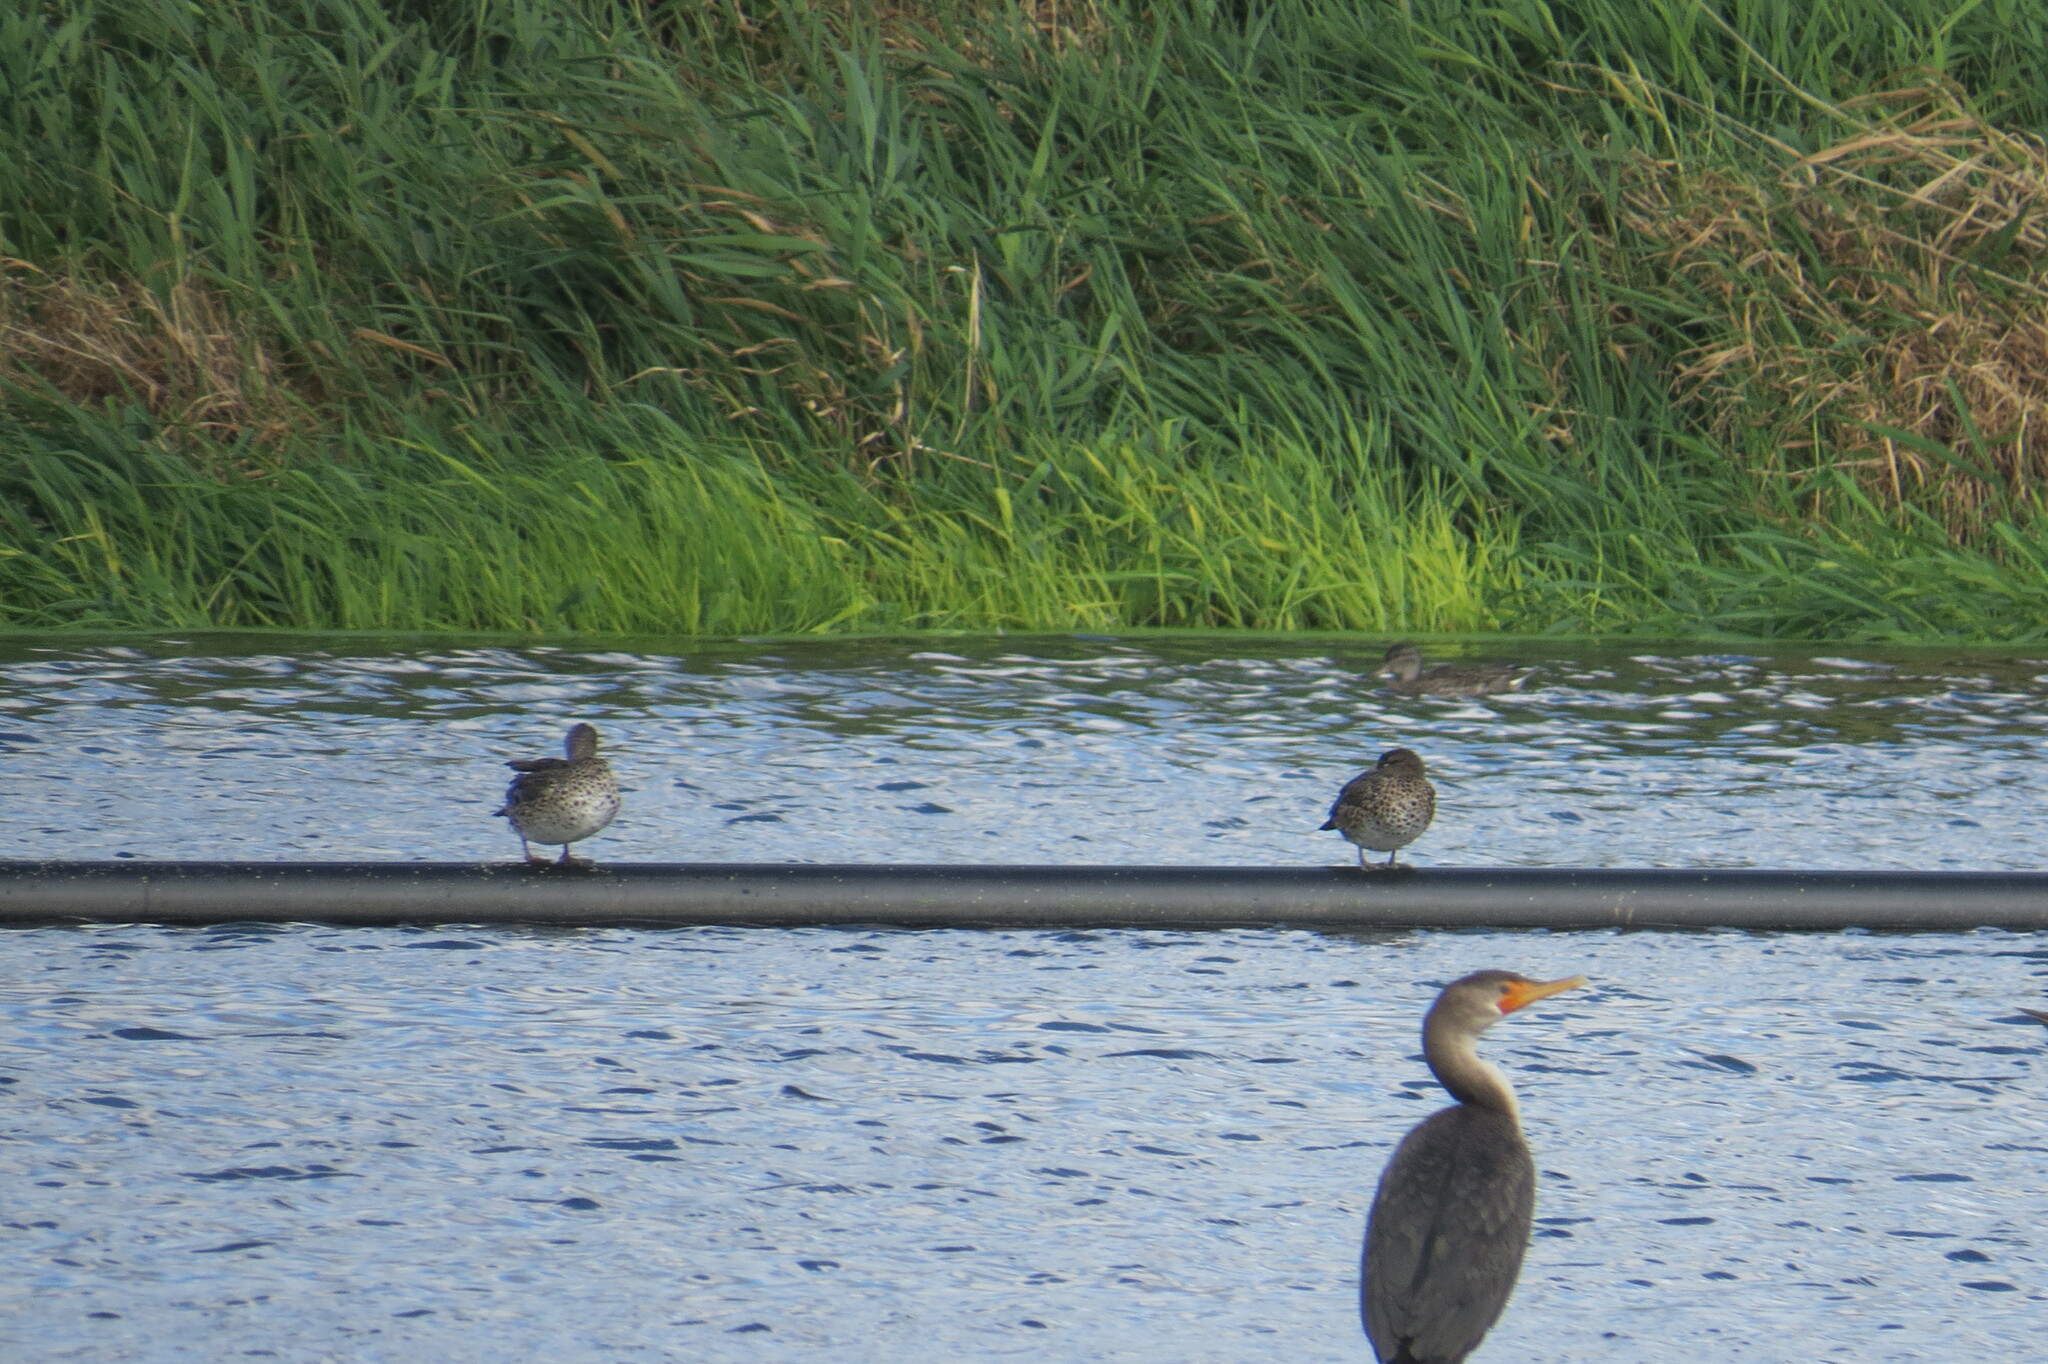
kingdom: Animalia
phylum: Chordata
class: Aves
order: Suliformes
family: Phalacrocoracidae
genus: Phalacrocorax
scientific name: Phalacrocorax auritus
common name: Double-crested cormorant
